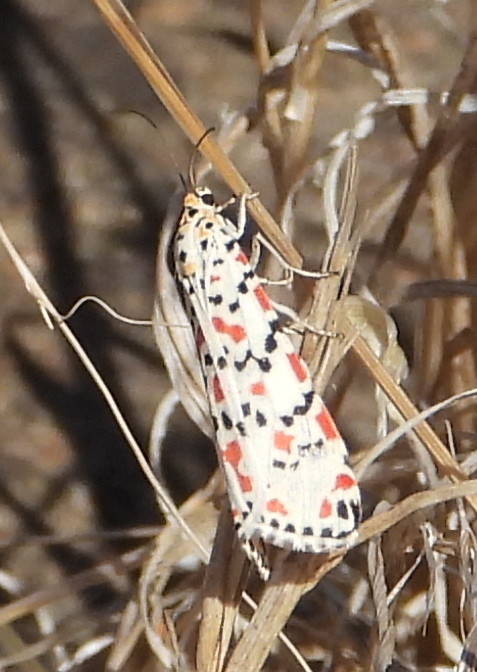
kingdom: Animalia
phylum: Arthropoda
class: Insecta
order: Lepidoptera
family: Erebidae
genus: Utetheisa
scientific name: Utetheisa pulchella
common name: Crimson speckled
